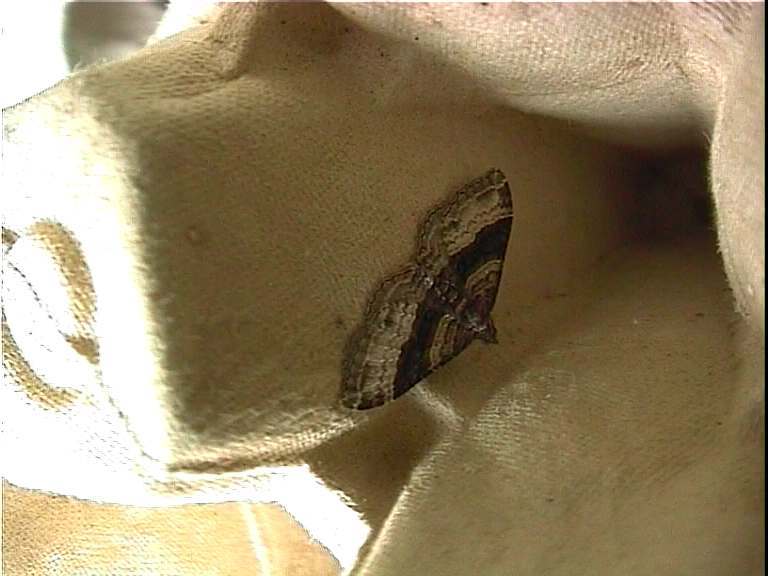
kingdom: Animalia
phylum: Arthropoda
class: Insecta
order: Lepidoptera
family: Geometridae
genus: Epyaxa
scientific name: Epyaxa lucidata
